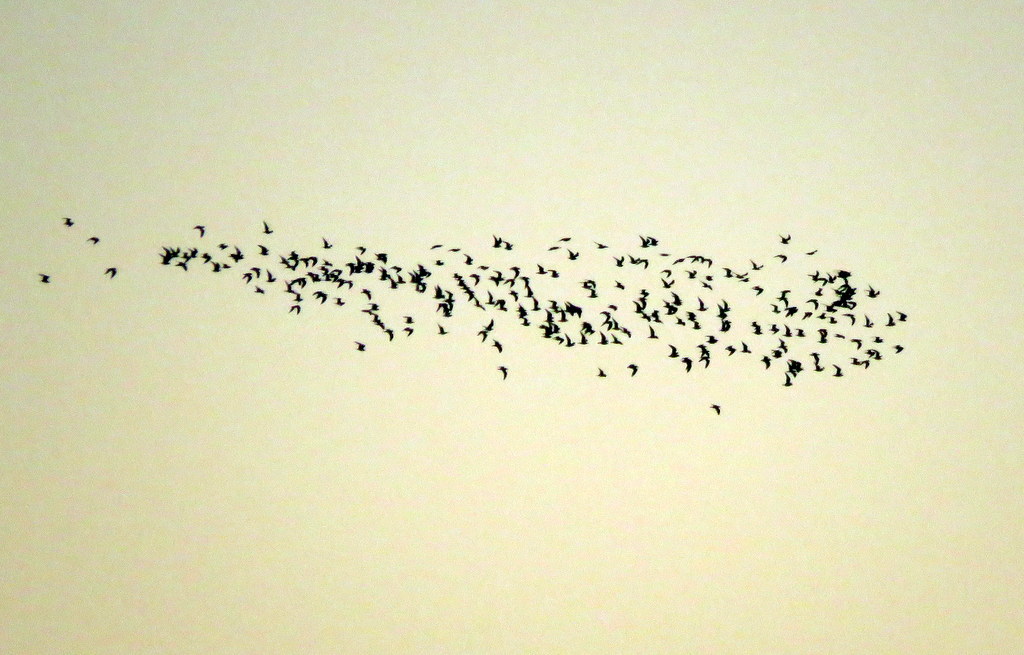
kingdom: Animalia
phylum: Chordata
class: Aves
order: Charadriiformes
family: Laridae
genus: Chroicocephalus
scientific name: Chroicocephalus maculipennis
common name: Brown-hooded gull
